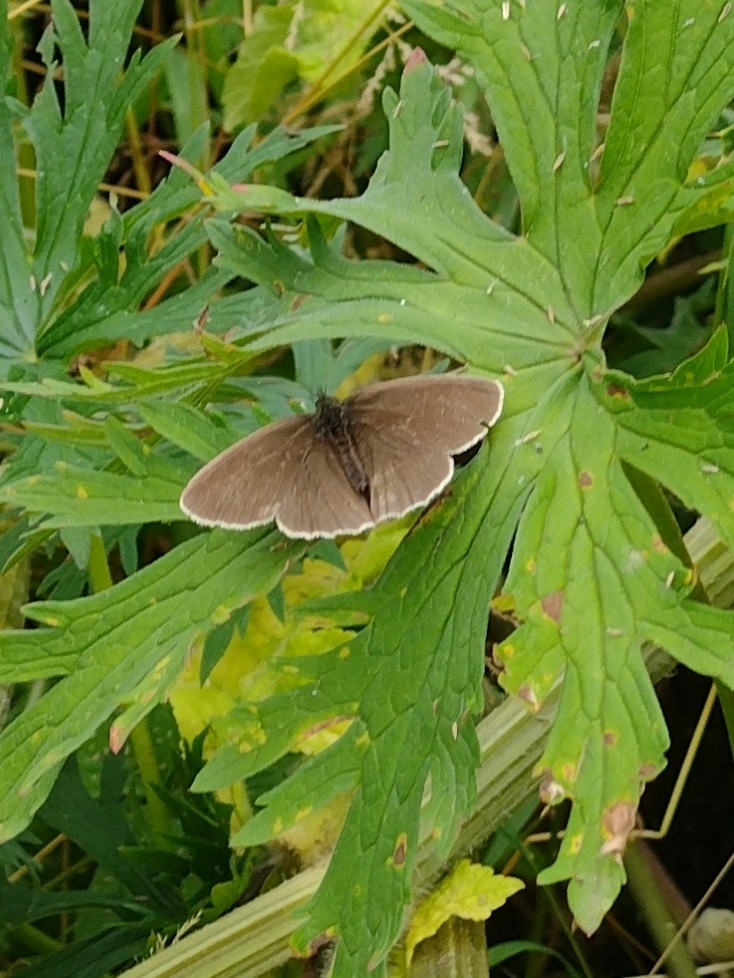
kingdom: Animalia
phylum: Arthropoda
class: Insecta
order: Lepidoptera
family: Nymphalidae
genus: Aphantopus
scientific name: Aphantopus hyperantus
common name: Ringlet
